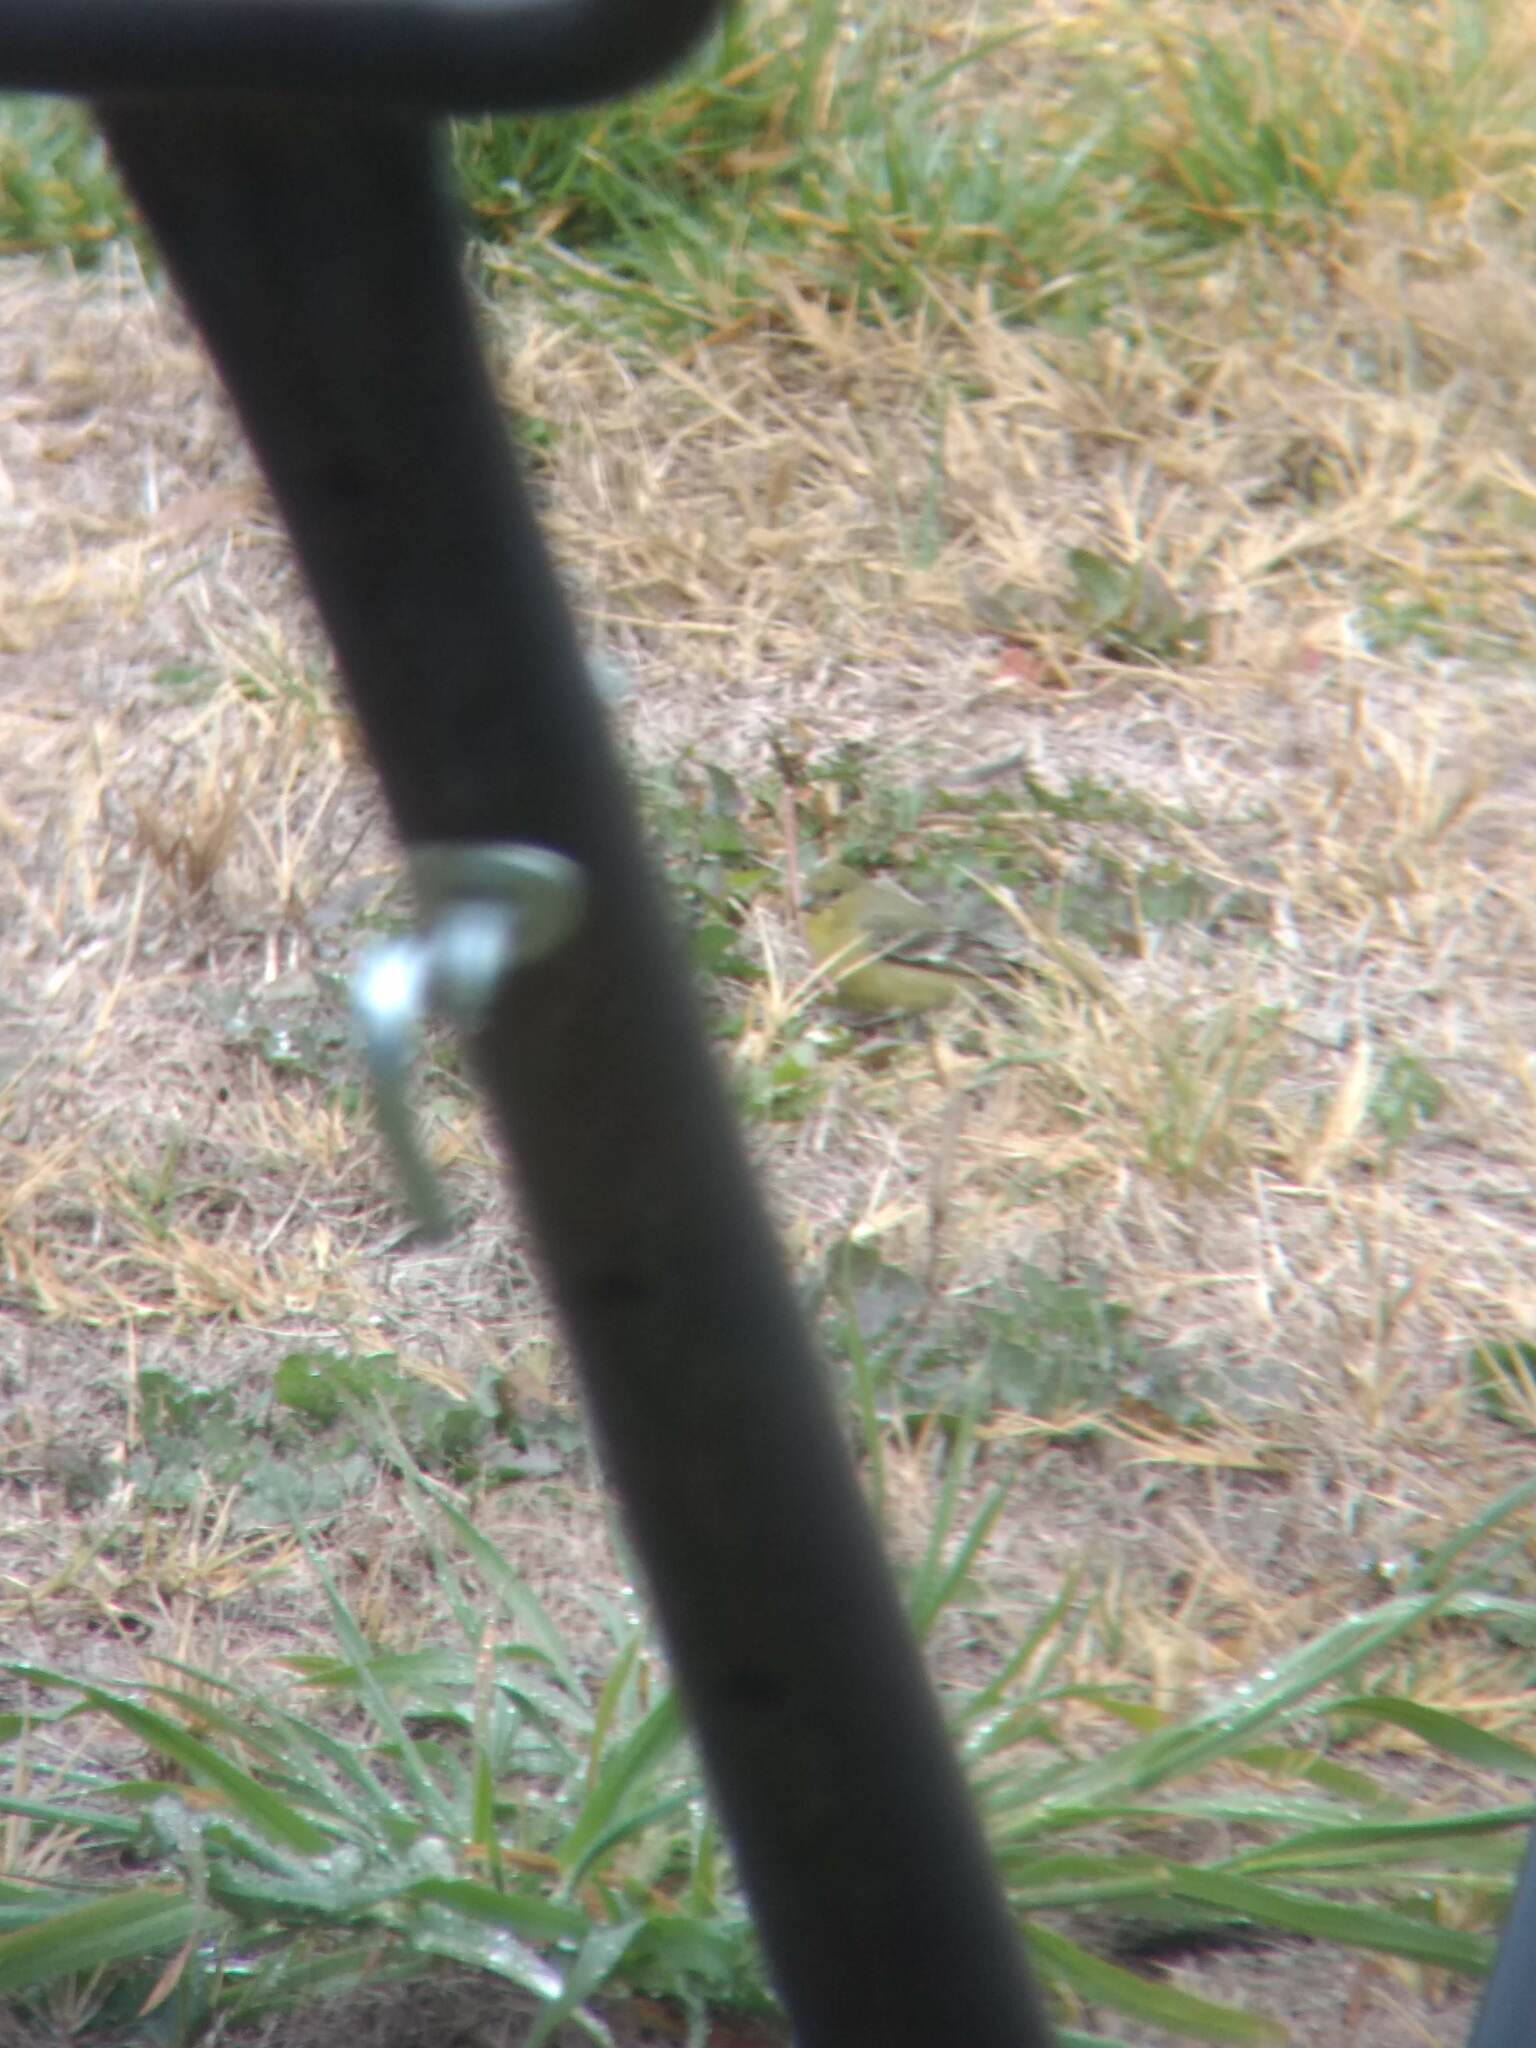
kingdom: Animalia
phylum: Chordata
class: Aves
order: Passeriformes
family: Fringillidae
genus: Spinus
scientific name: Spinus psaltria
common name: Lesser goldfinch
